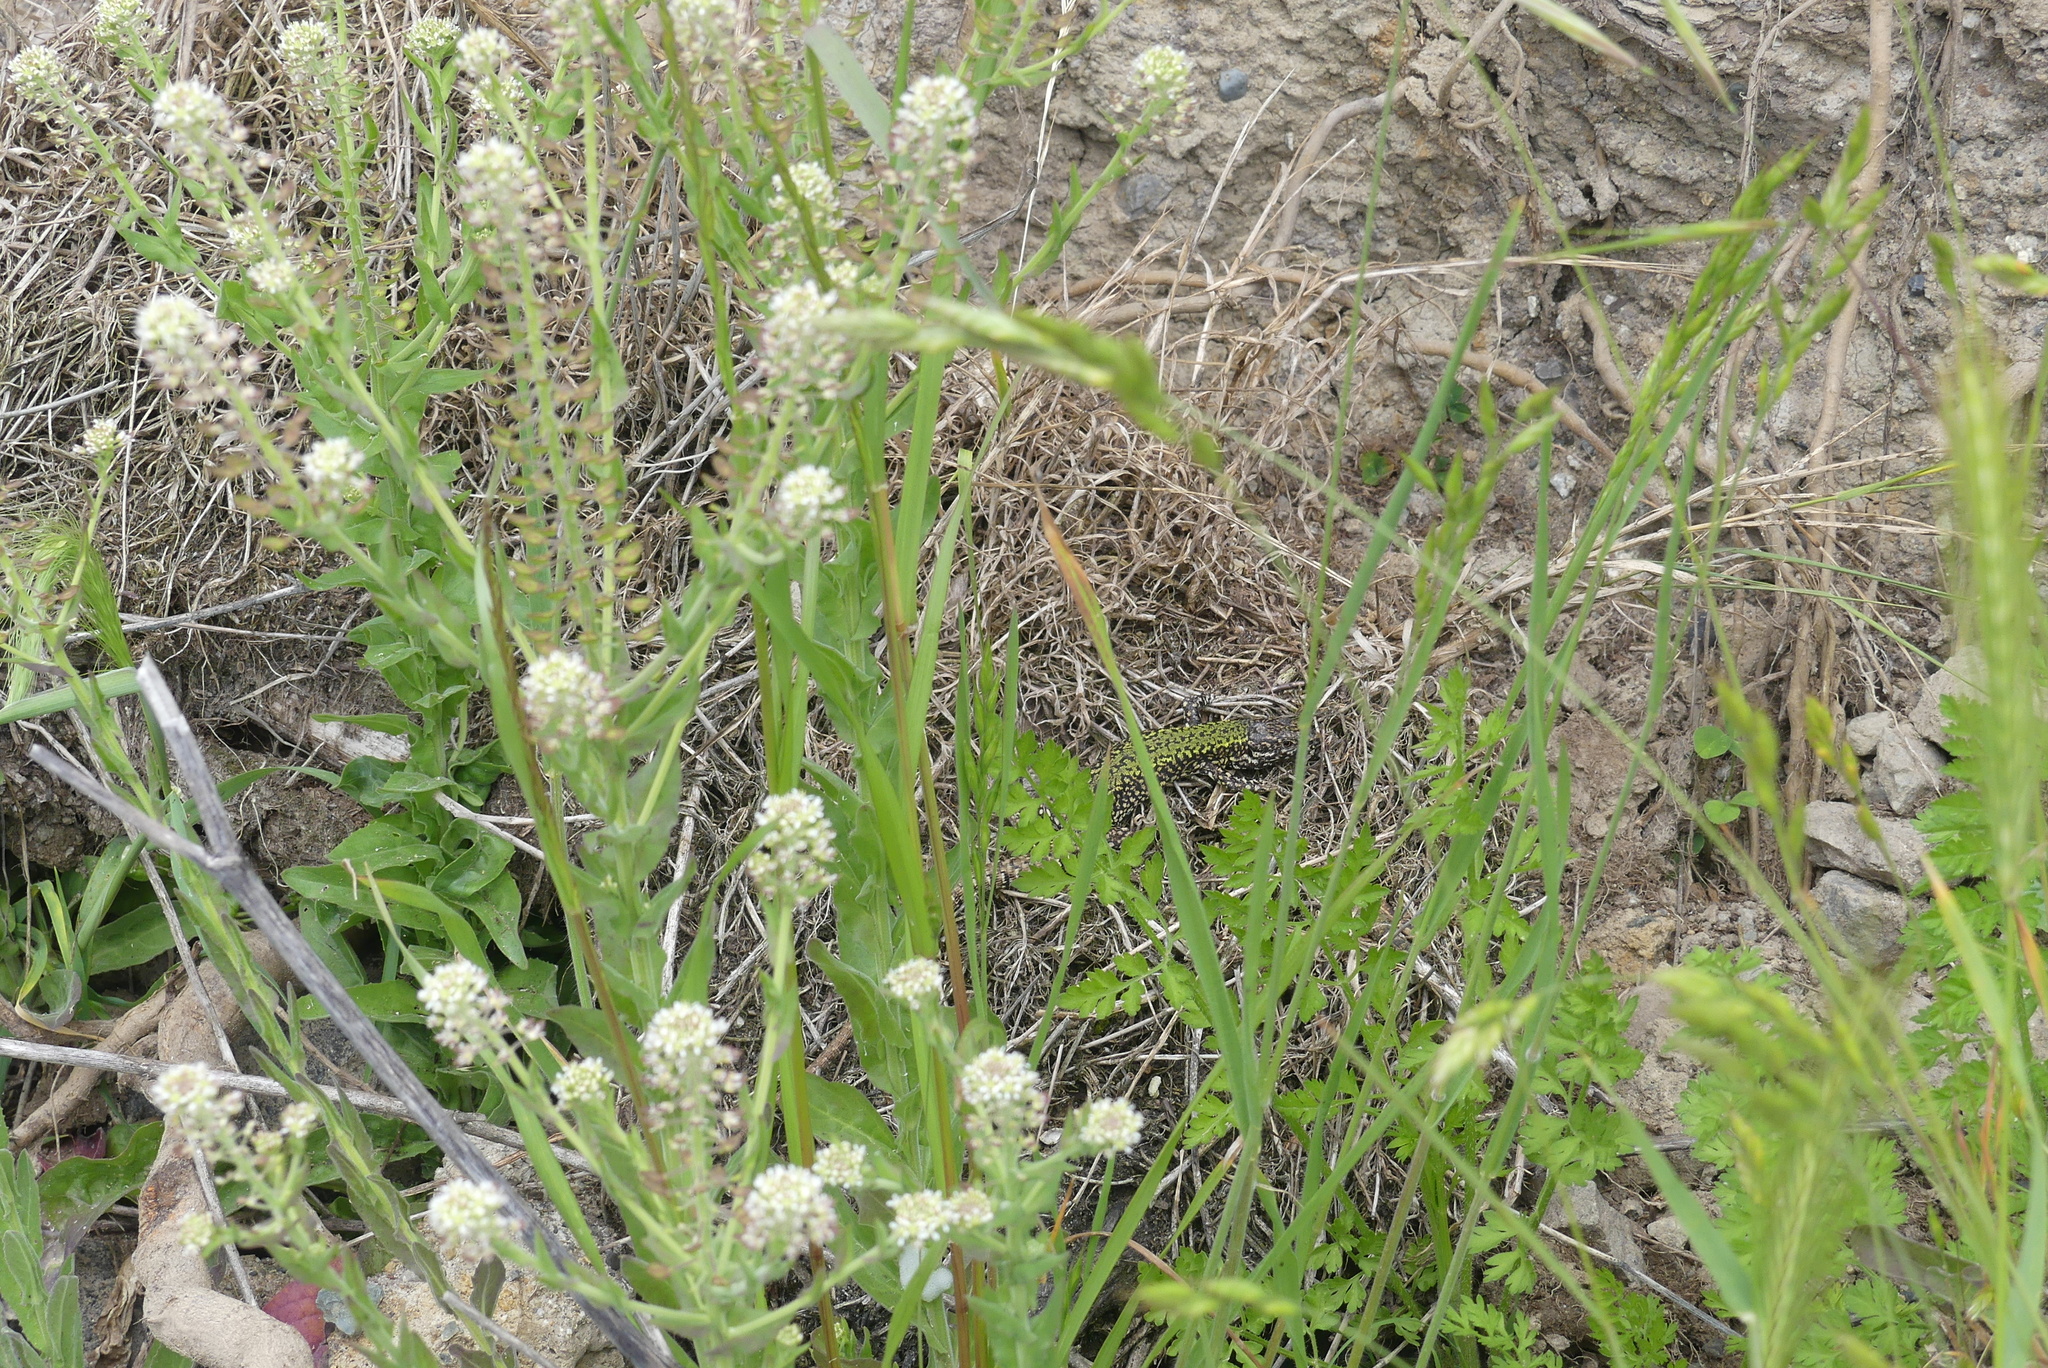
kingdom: Animalia
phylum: Chordata
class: Squamata
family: Lacertidae
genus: Podarcis
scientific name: Podarcis muralis
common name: Common wall lizard
